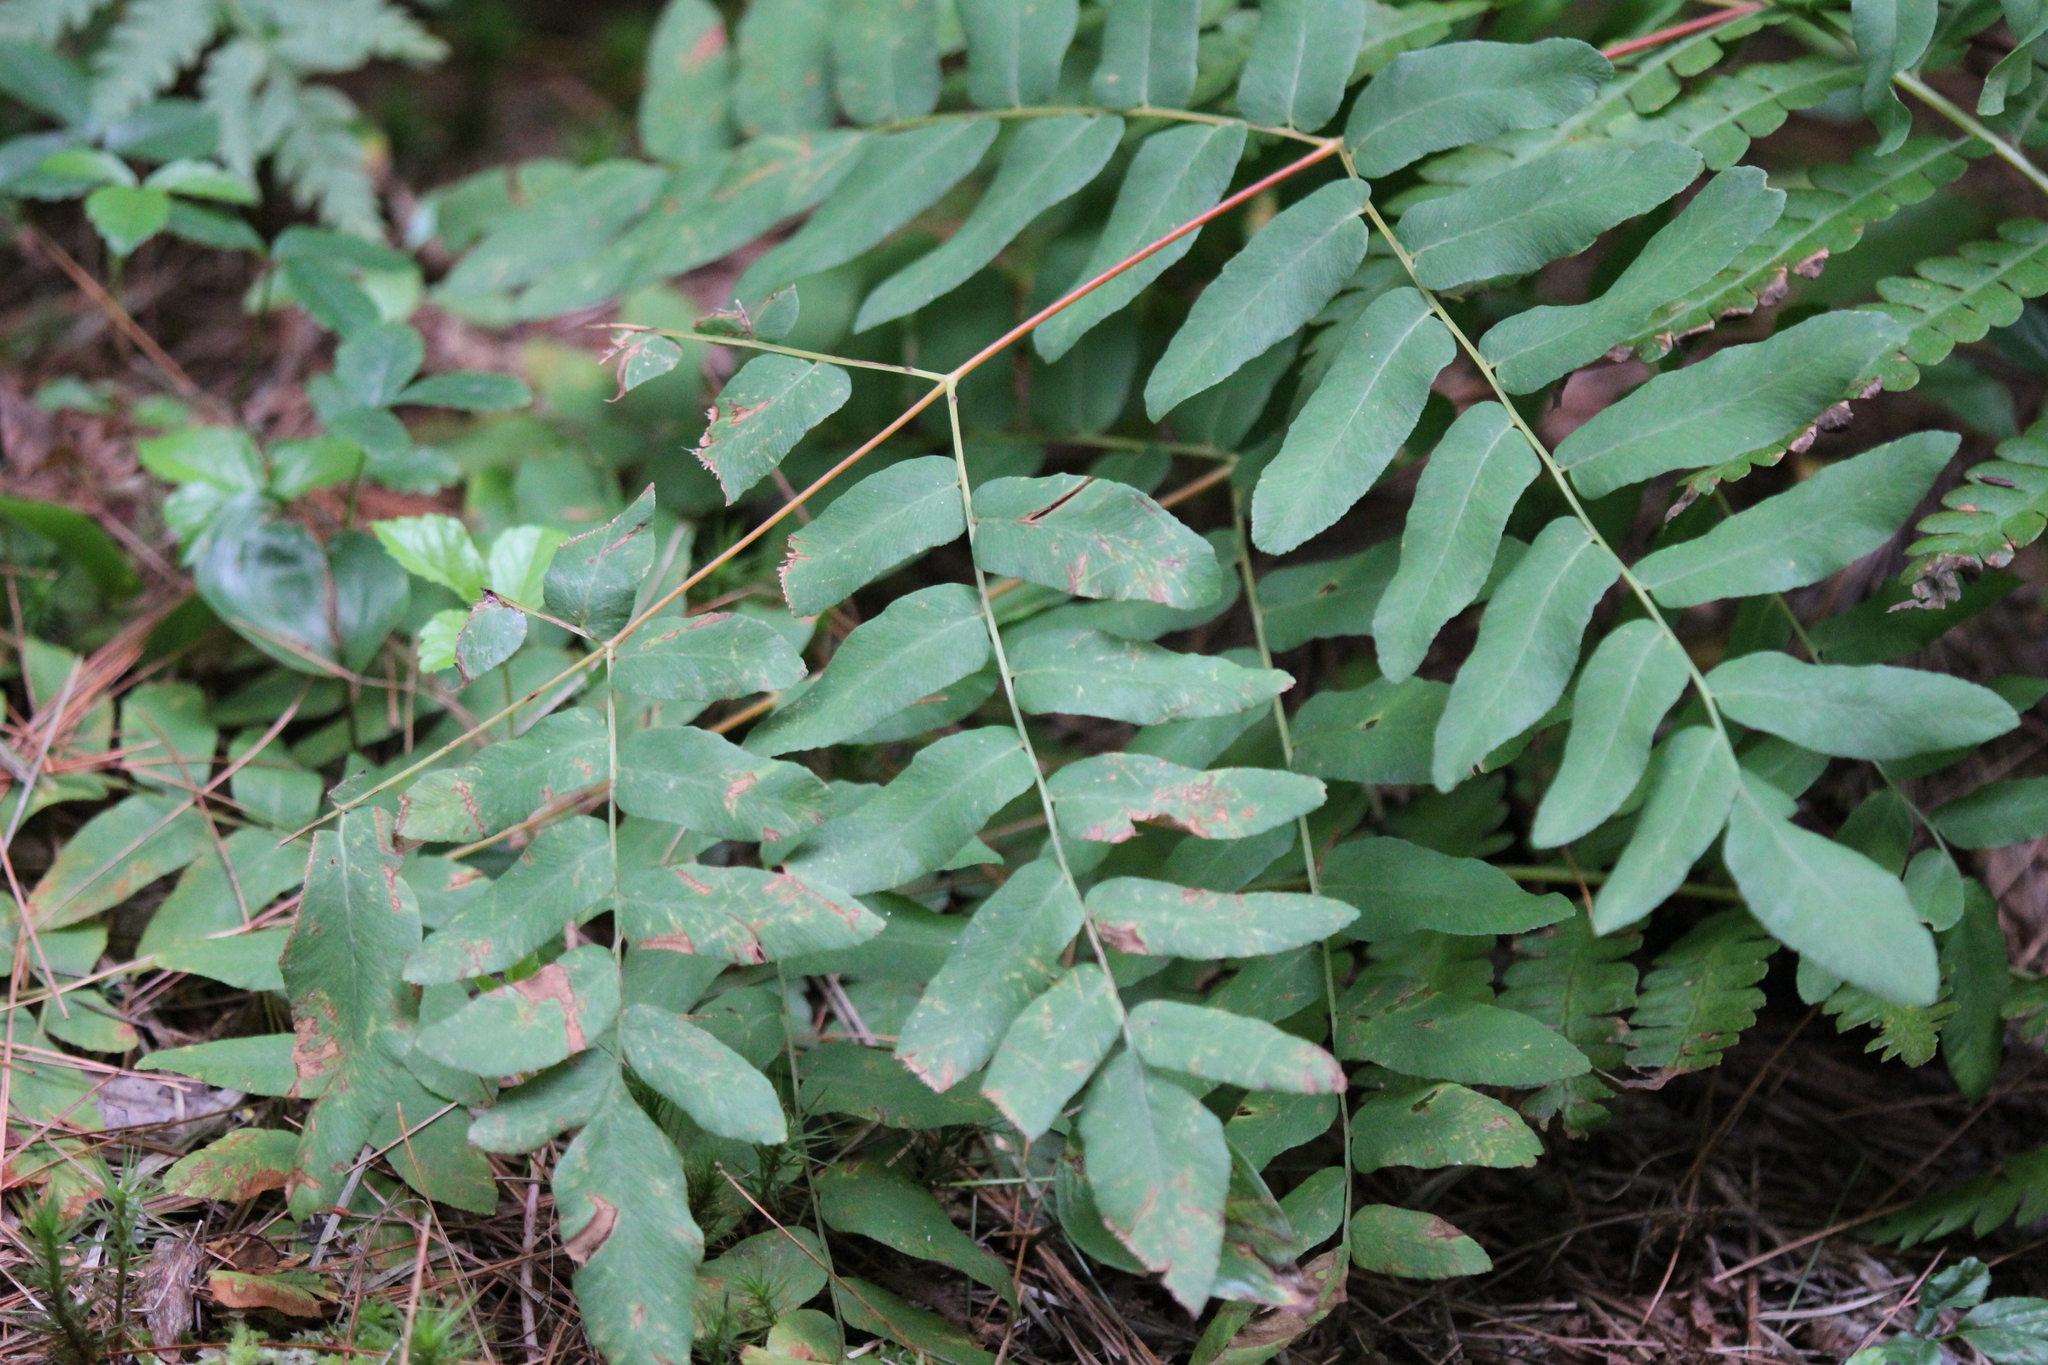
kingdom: Plantae
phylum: Tracheophyta
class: Polypodiopsida
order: Osmundales
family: Osmundaceae
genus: Osmunda
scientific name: Osmunda spectabilis
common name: American royal fern
